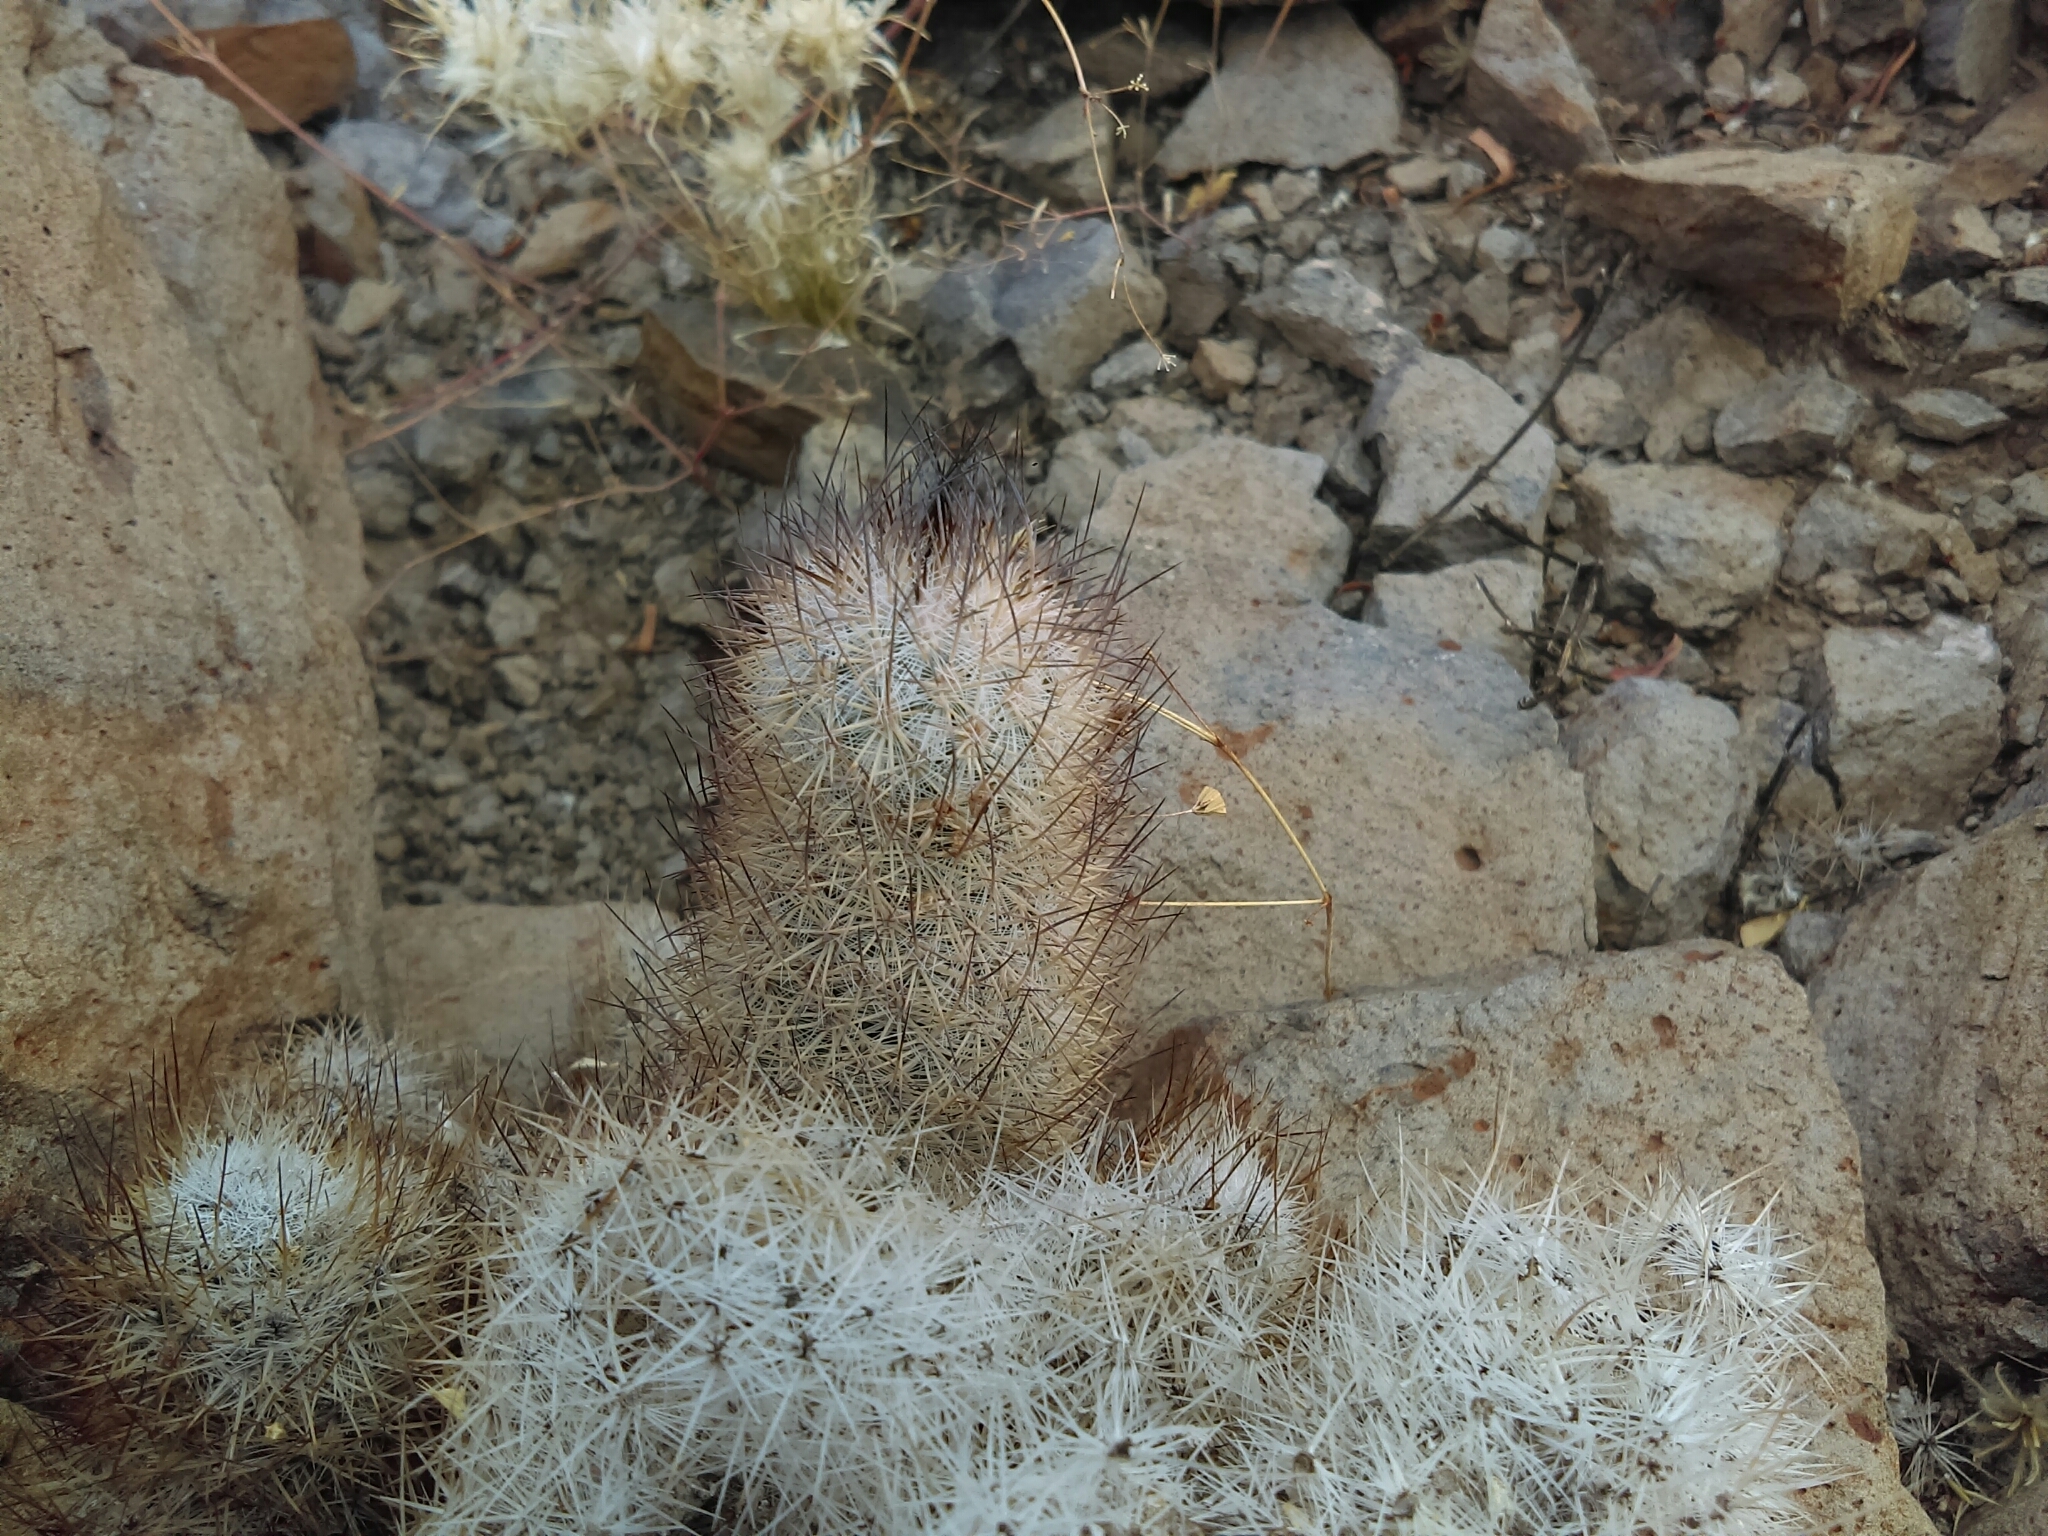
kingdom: Plantae
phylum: Tracheophyta
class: Magnoliopsida
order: Caryophyllales
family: Cactaceae
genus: Mammillaria
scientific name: Mammillaria pottsii
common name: Pott's nipple-cactus
